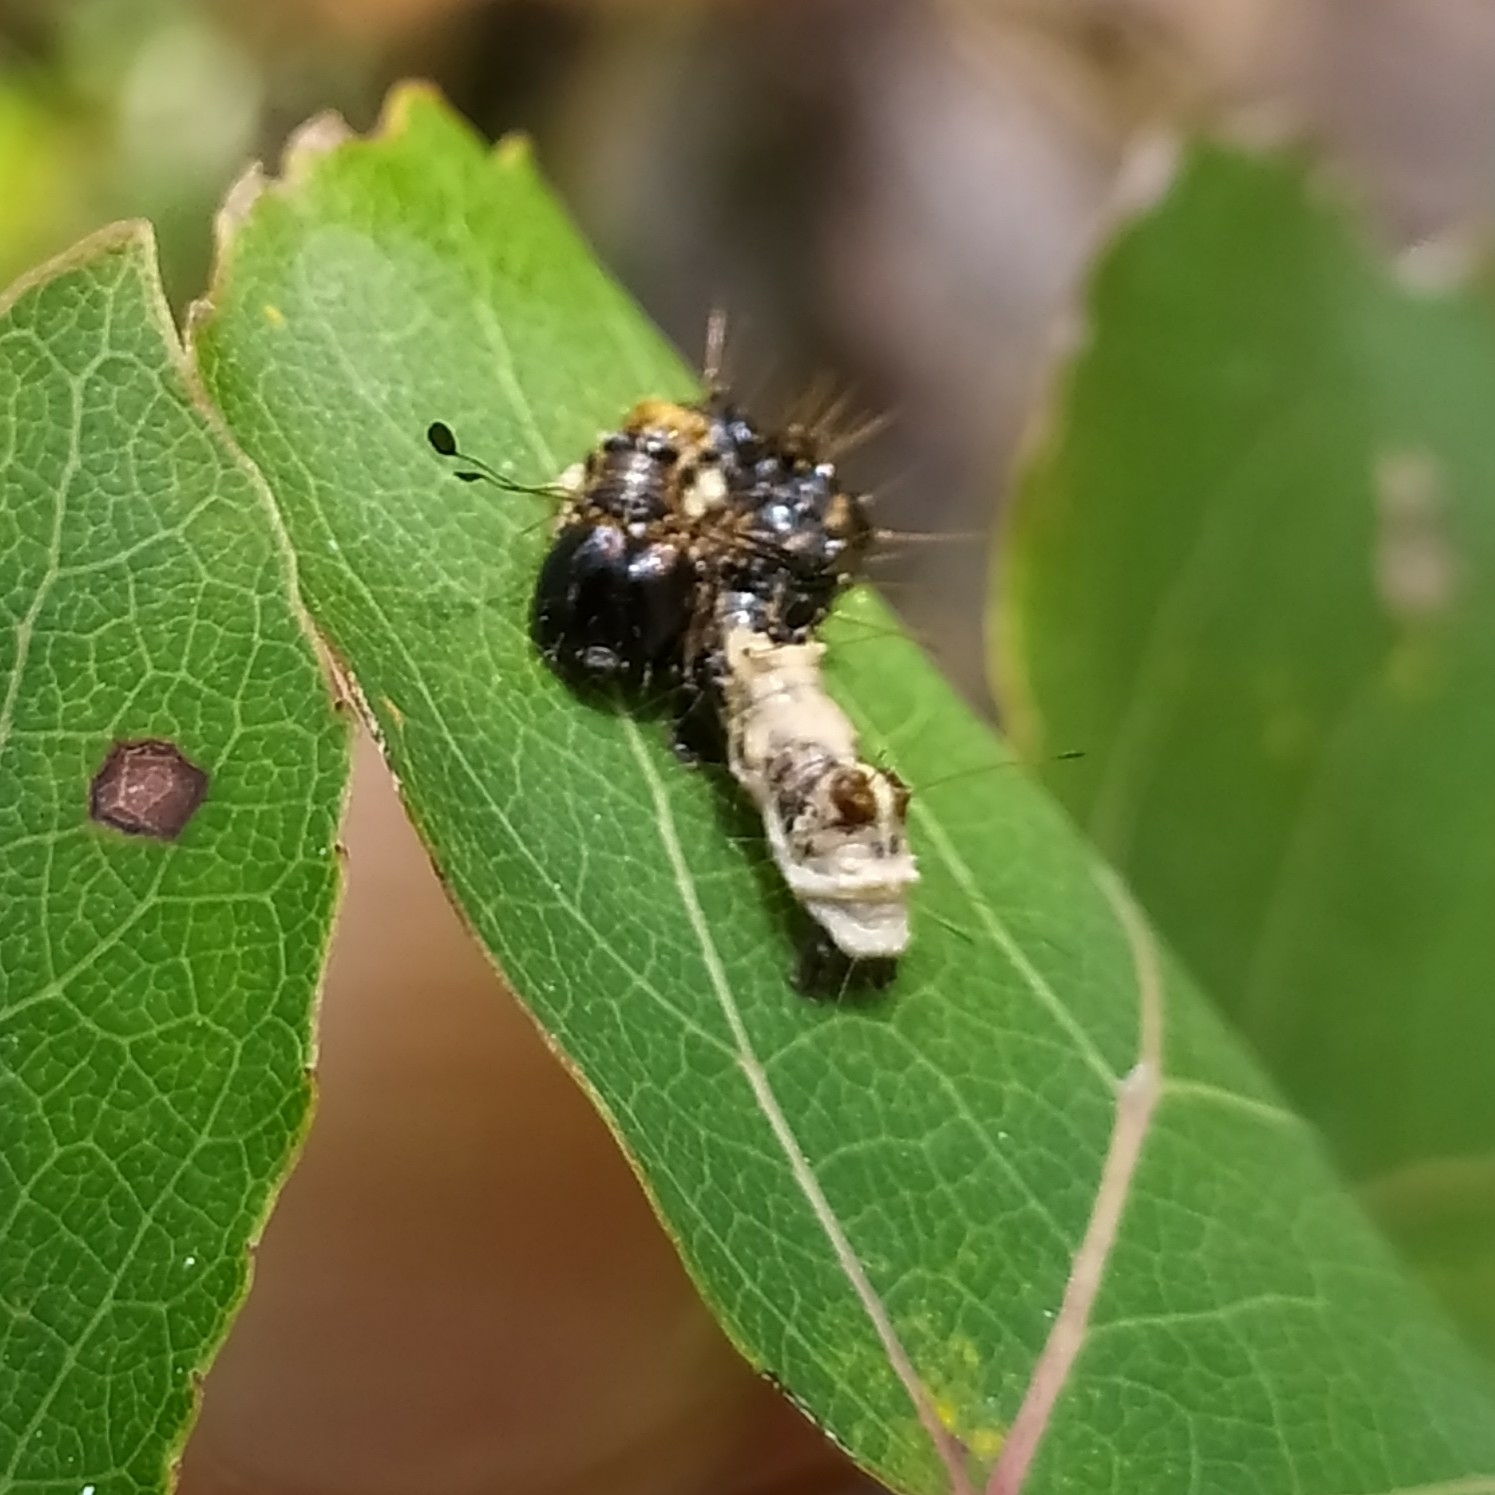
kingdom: Animalia
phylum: Arthropoda
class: Insecta
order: Lepidoptera
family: Noctuidae
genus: Acronicta
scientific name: Acronicta alni
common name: Alder moth
